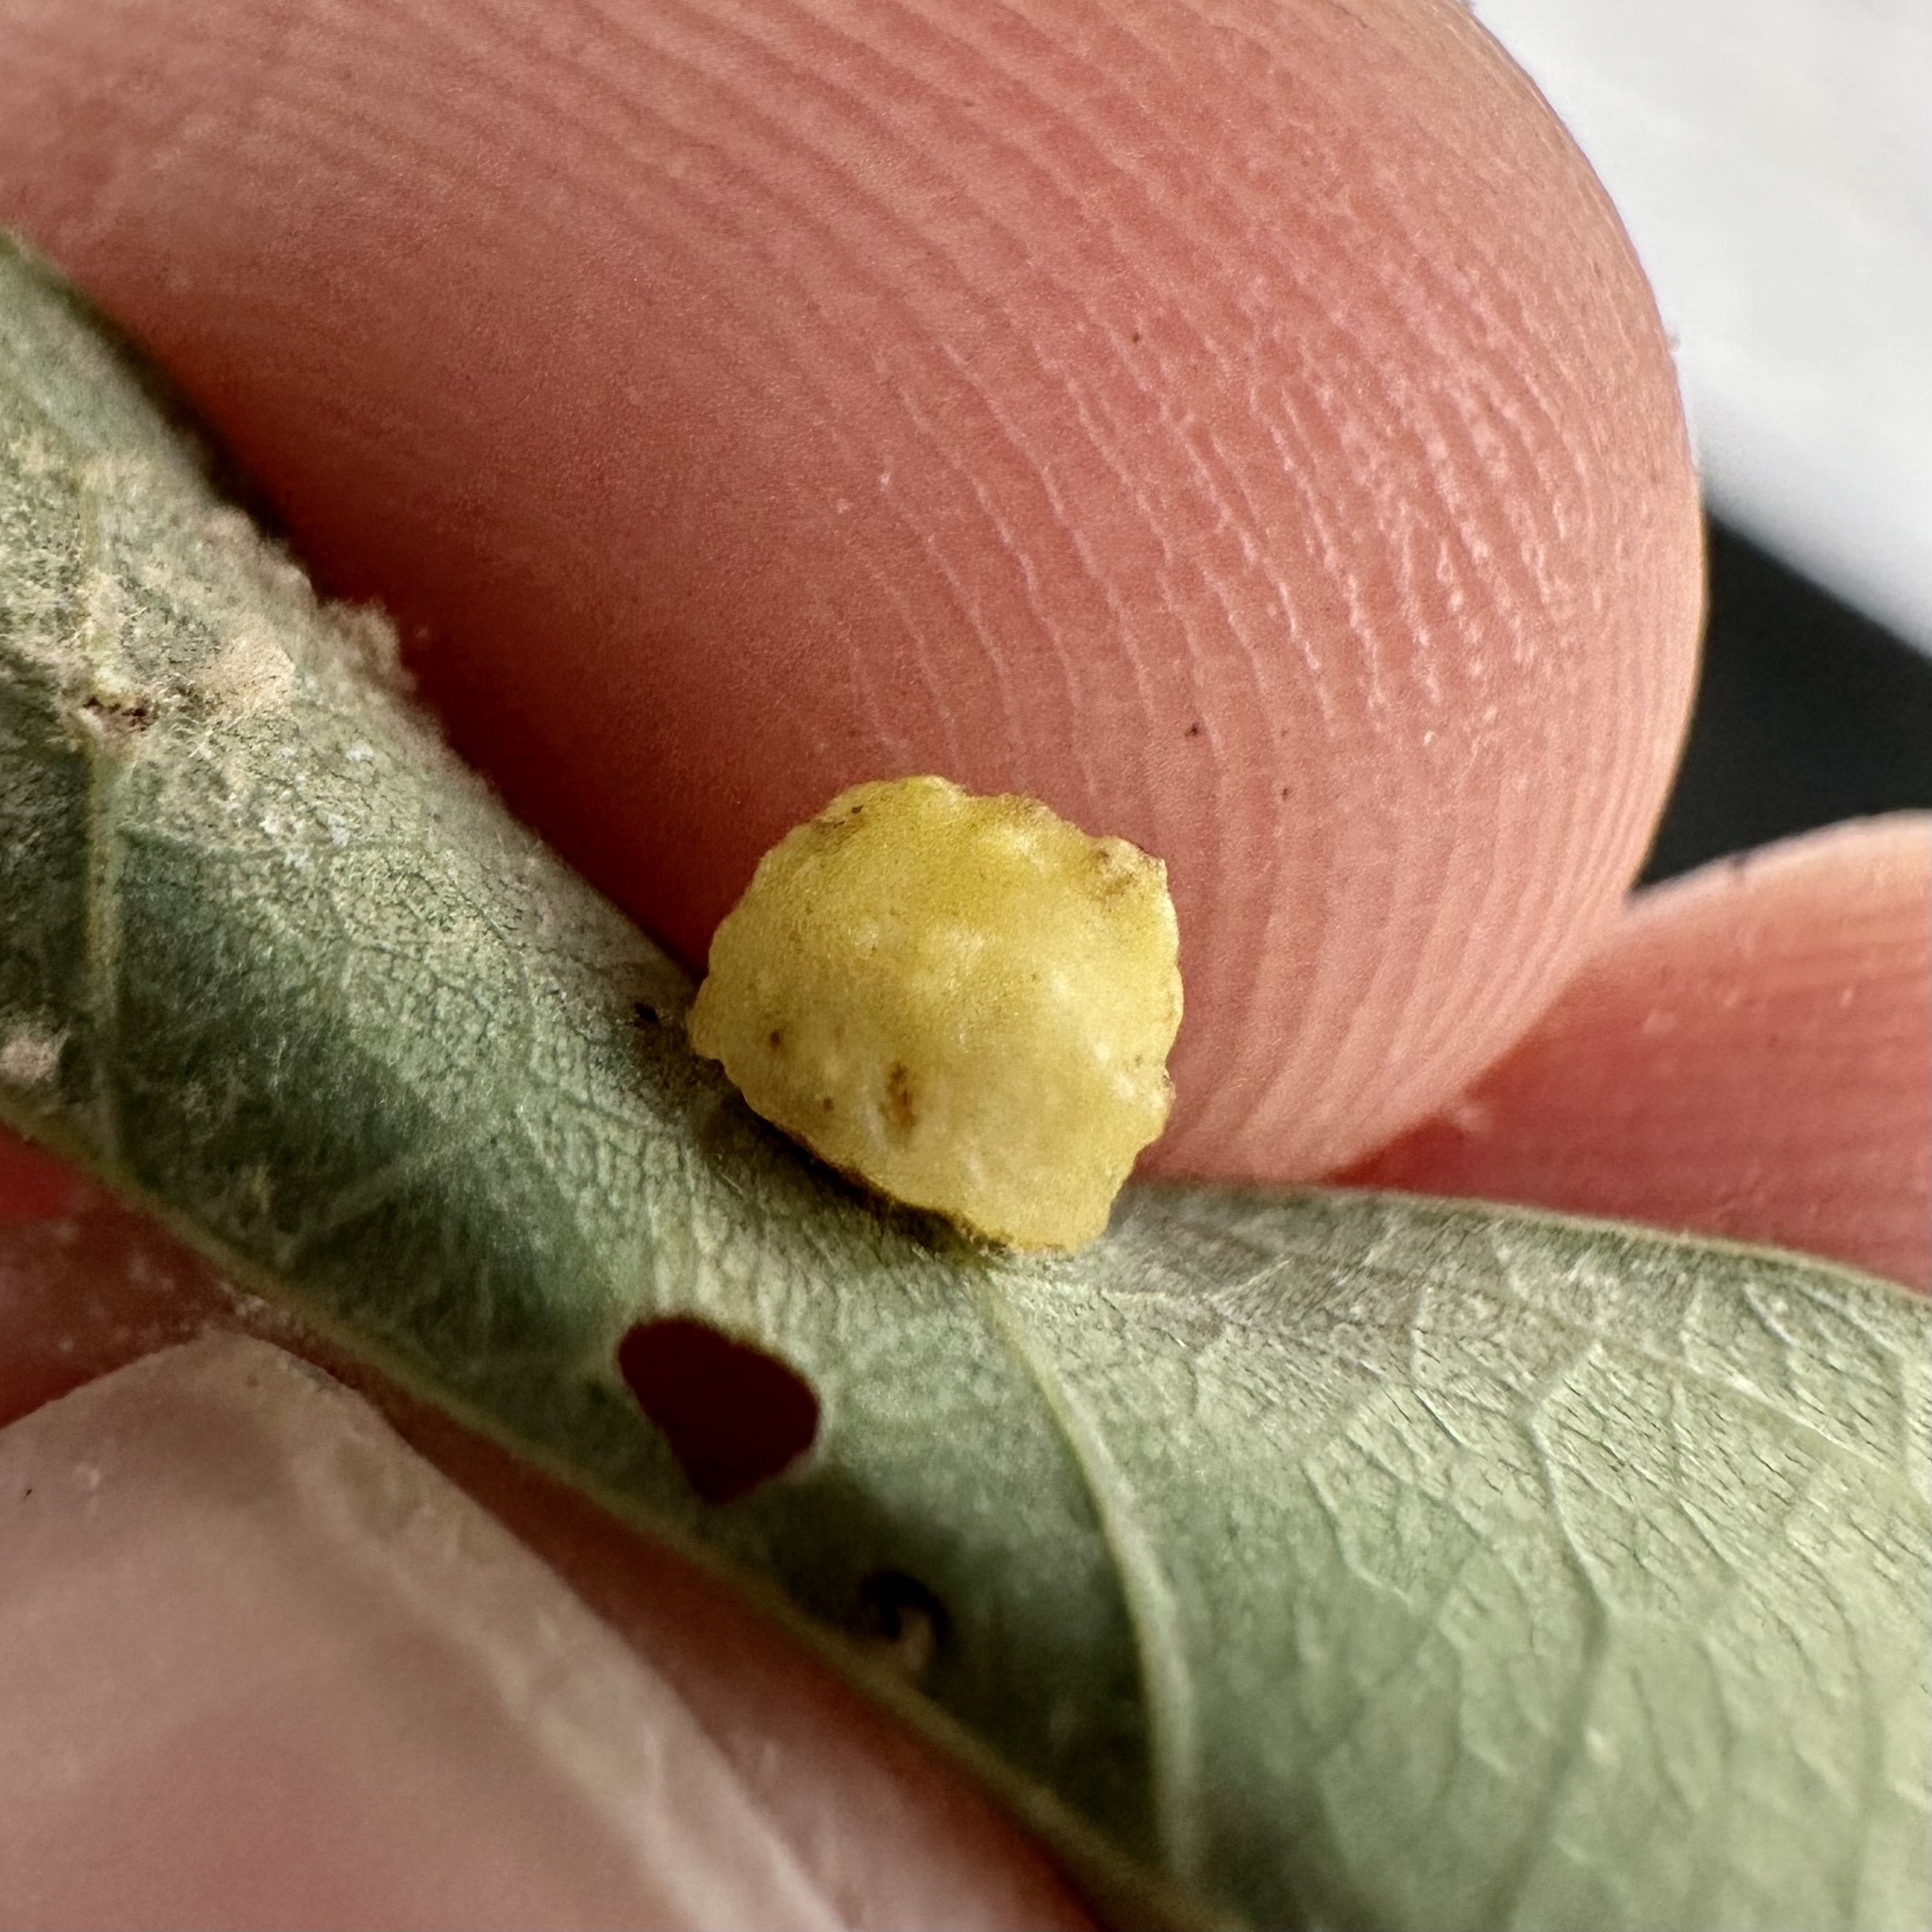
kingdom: Animalia
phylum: Arthropoda
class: Insecta
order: Hymenoptera
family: Cynipidae
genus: Andricus
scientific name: Andricus
